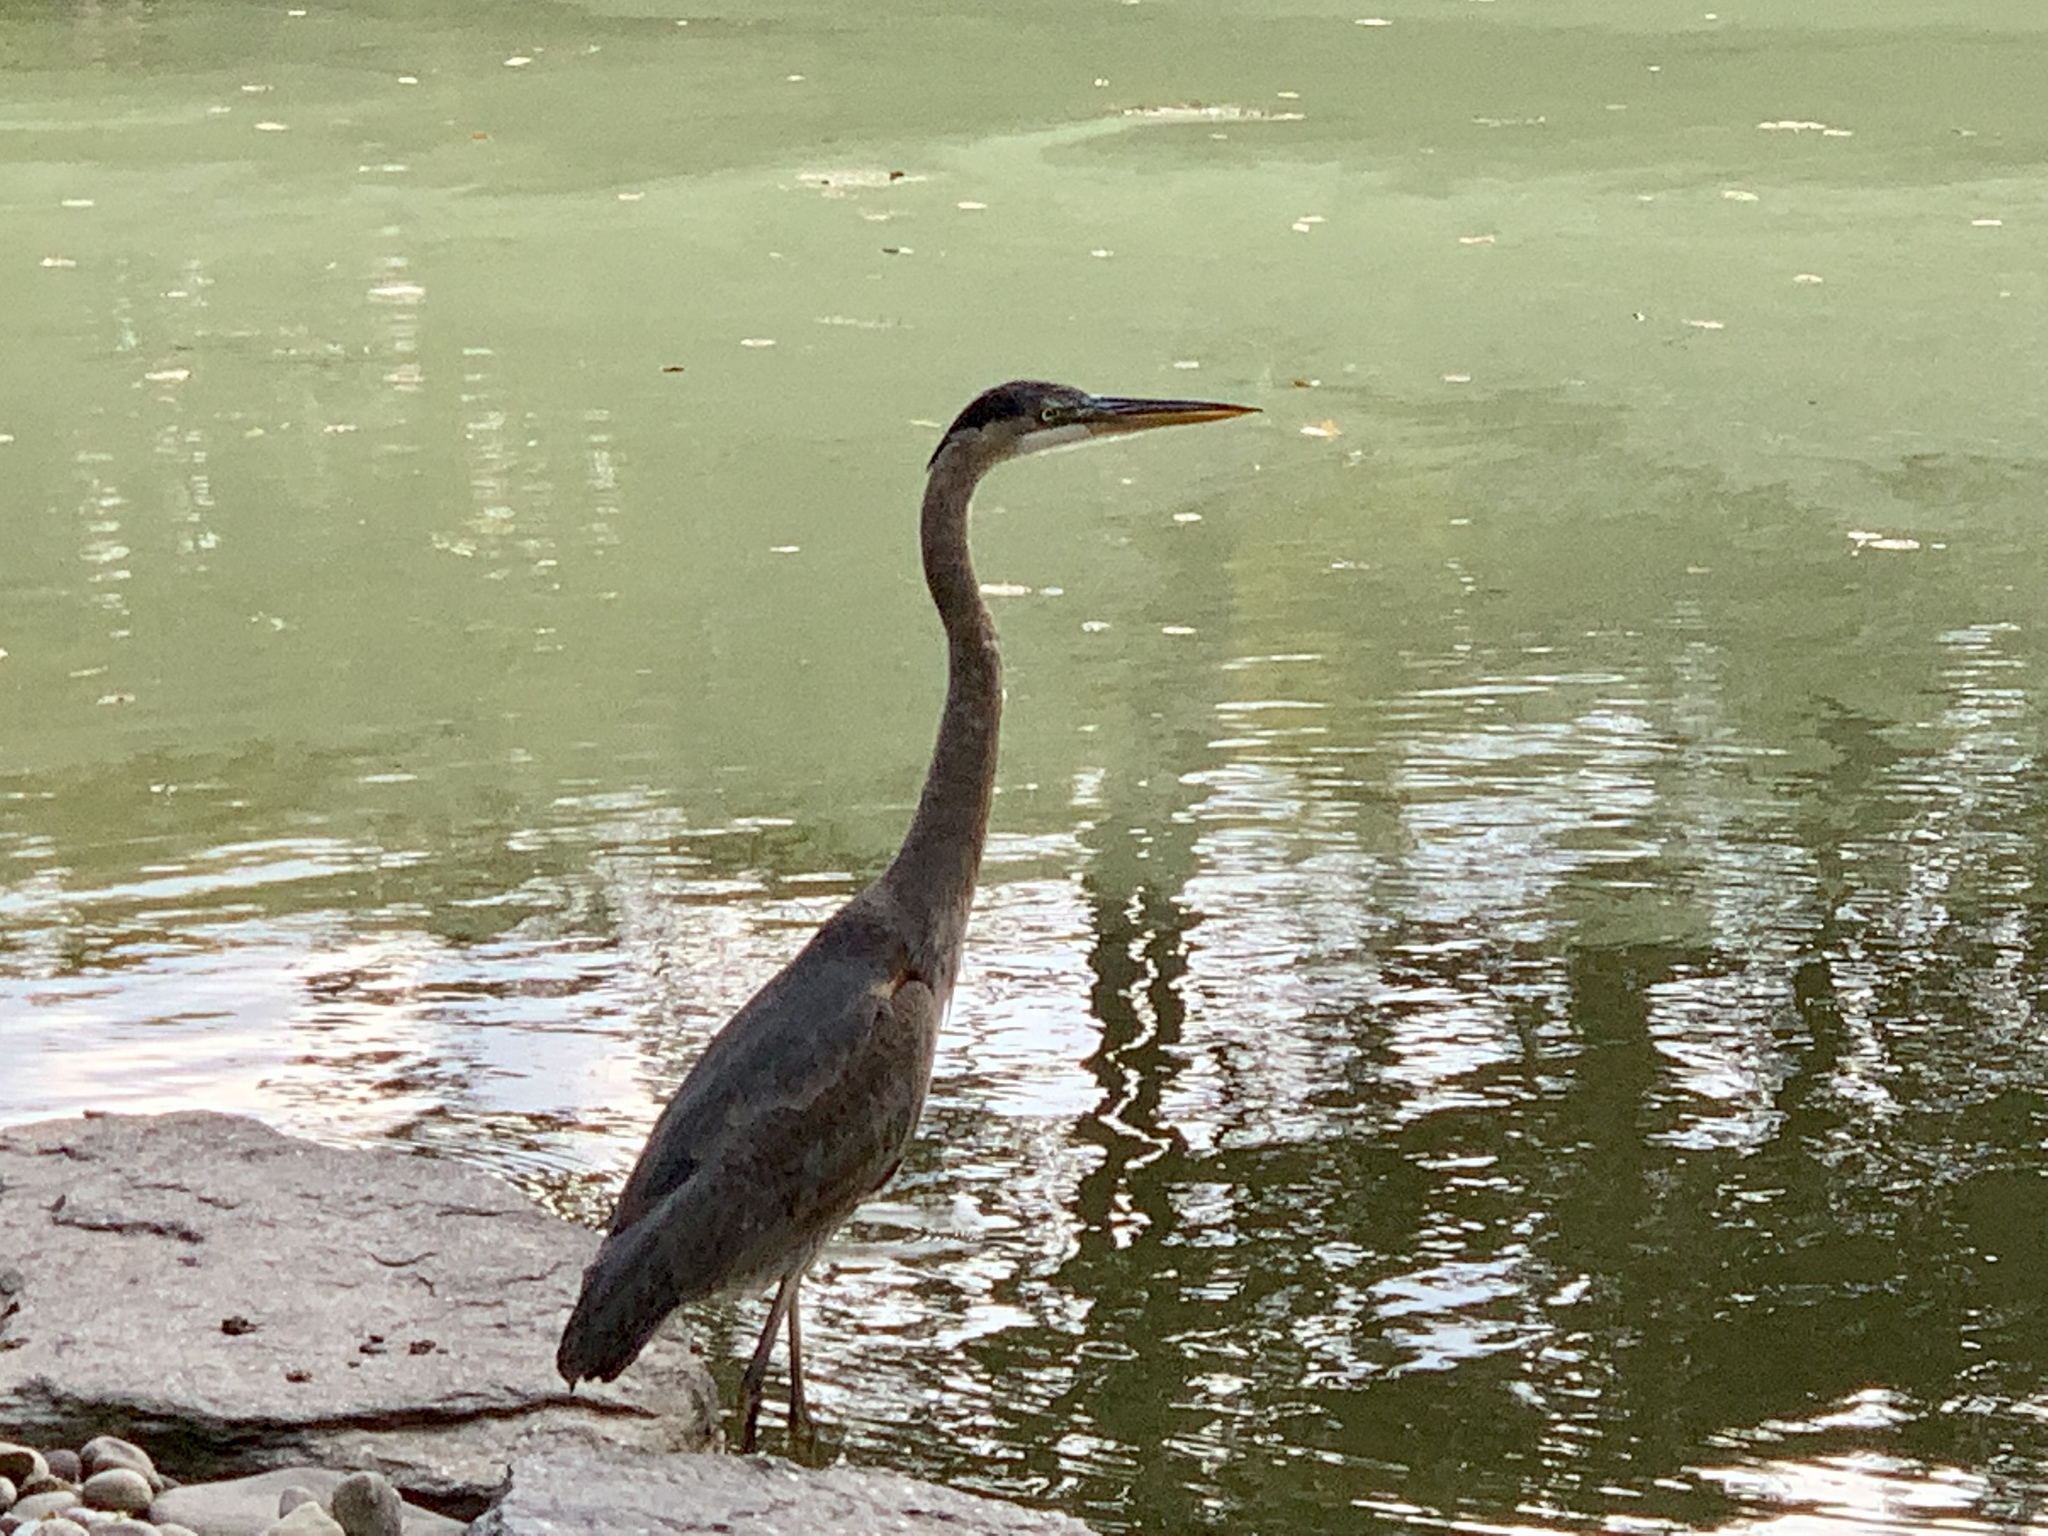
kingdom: Animalia
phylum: Chordata
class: Aves
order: Pelecaniformes
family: Ardeidae
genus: Ardea
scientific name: Ardea herodias
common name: Great blue heron
